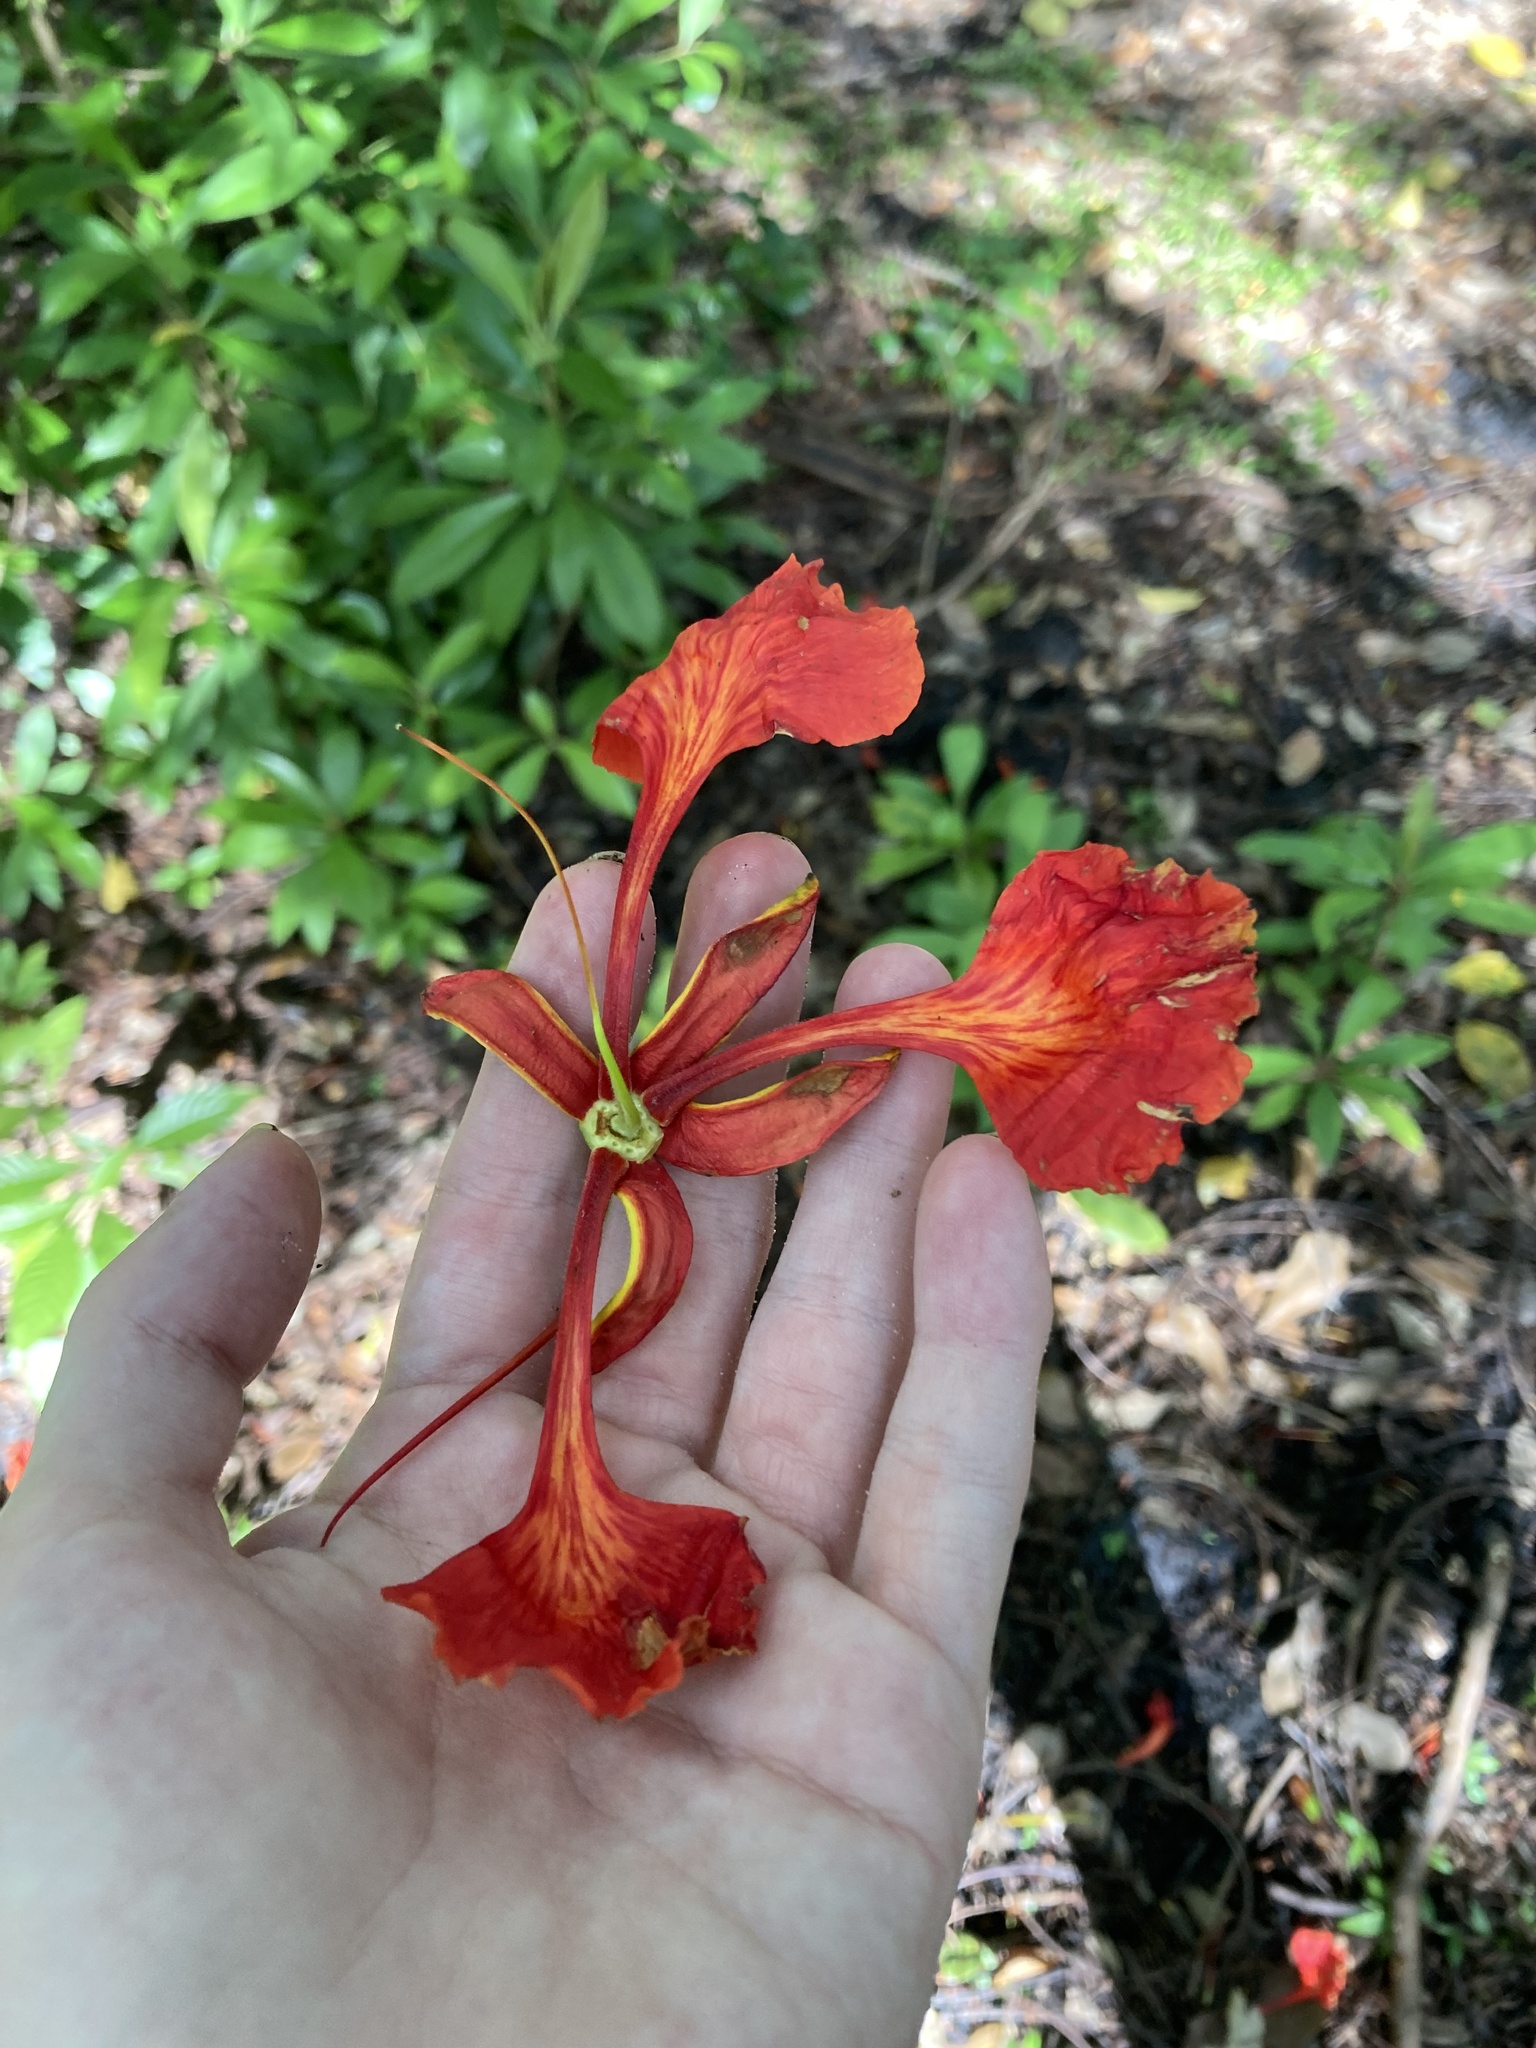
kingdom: Plantae
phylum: Tracheophyta
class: Magnoliopsida
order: Fabales
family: Fabaceae
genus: Delonix
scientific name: Delonix regia
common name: Royal poinciana
